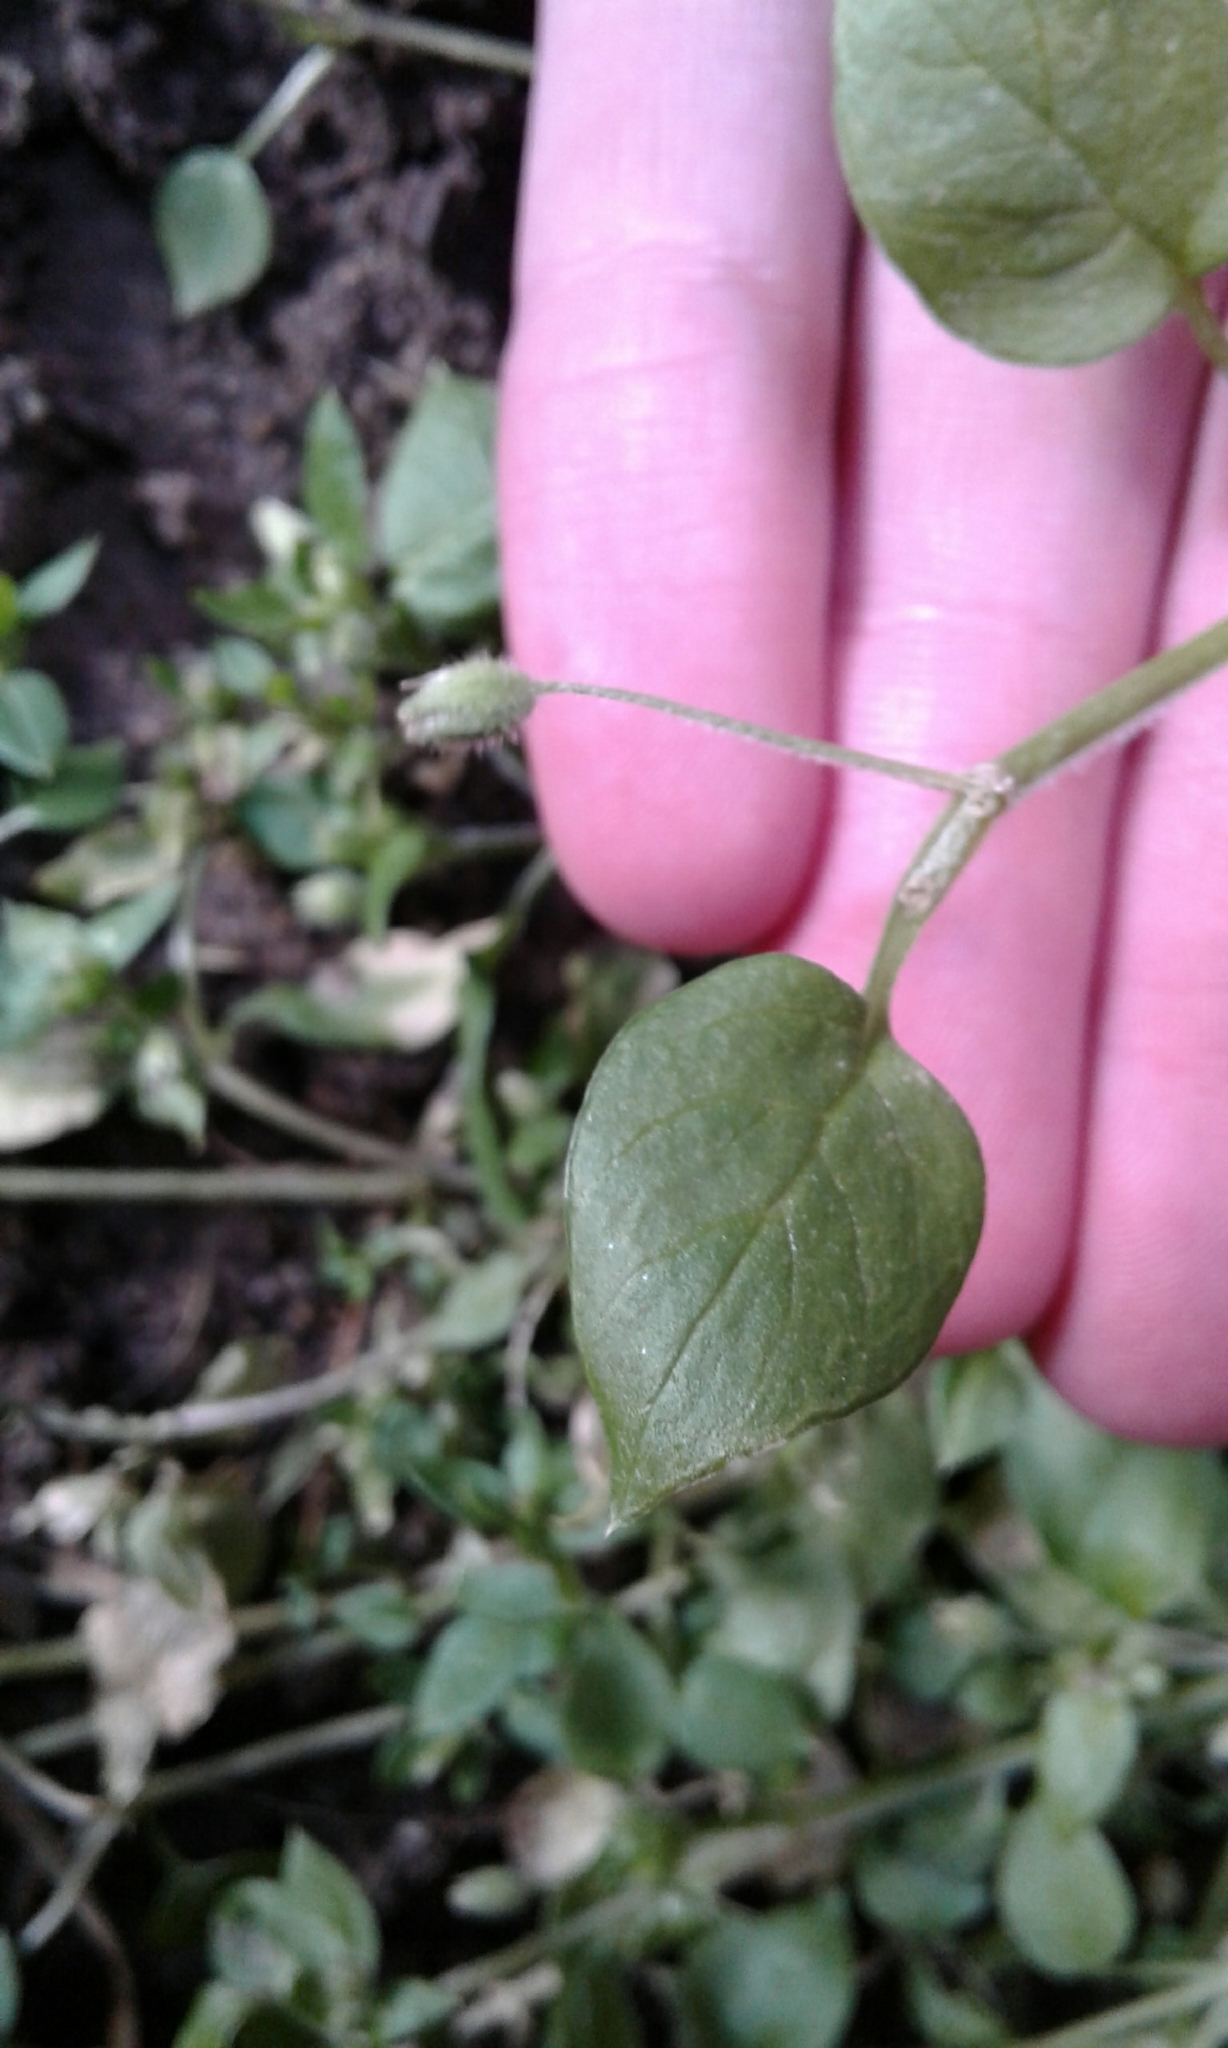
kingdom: Plantae
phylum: Tracheophyta
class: Magnoliopsida
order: Caryophyllales
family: Caryophyllaceae
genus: Stellaria
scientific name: Stellaria media
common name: Common chickweed
